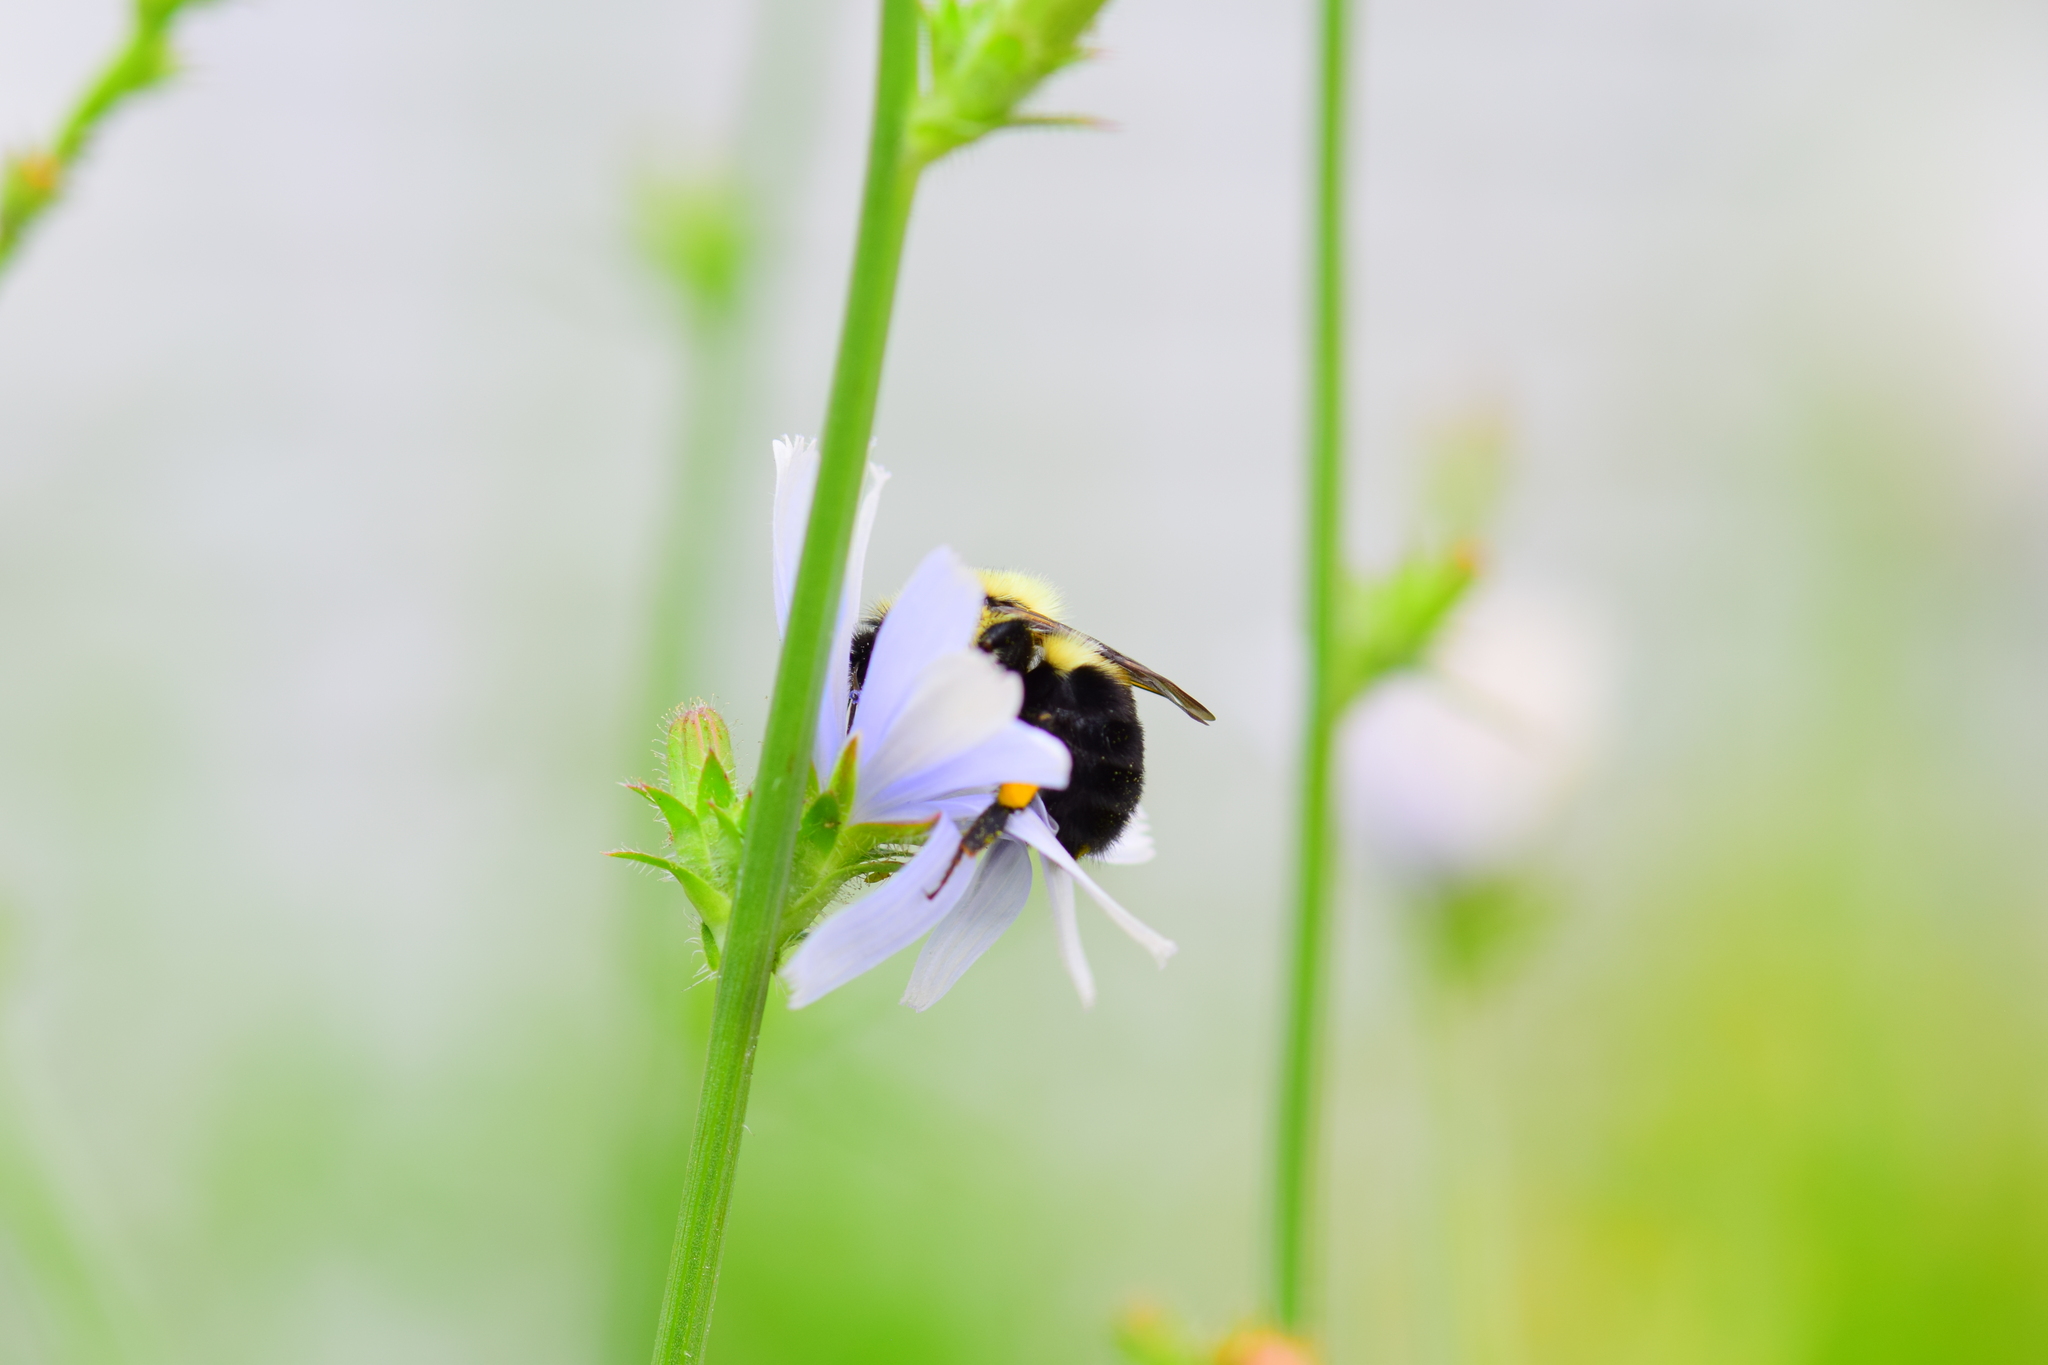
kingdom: Animalia
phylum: Arthropoda
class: Insecta
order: Hymenoptera
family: Apidae
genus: Bombus
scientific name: Bombus bimaculatus
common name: Two-spotted bumble bee
